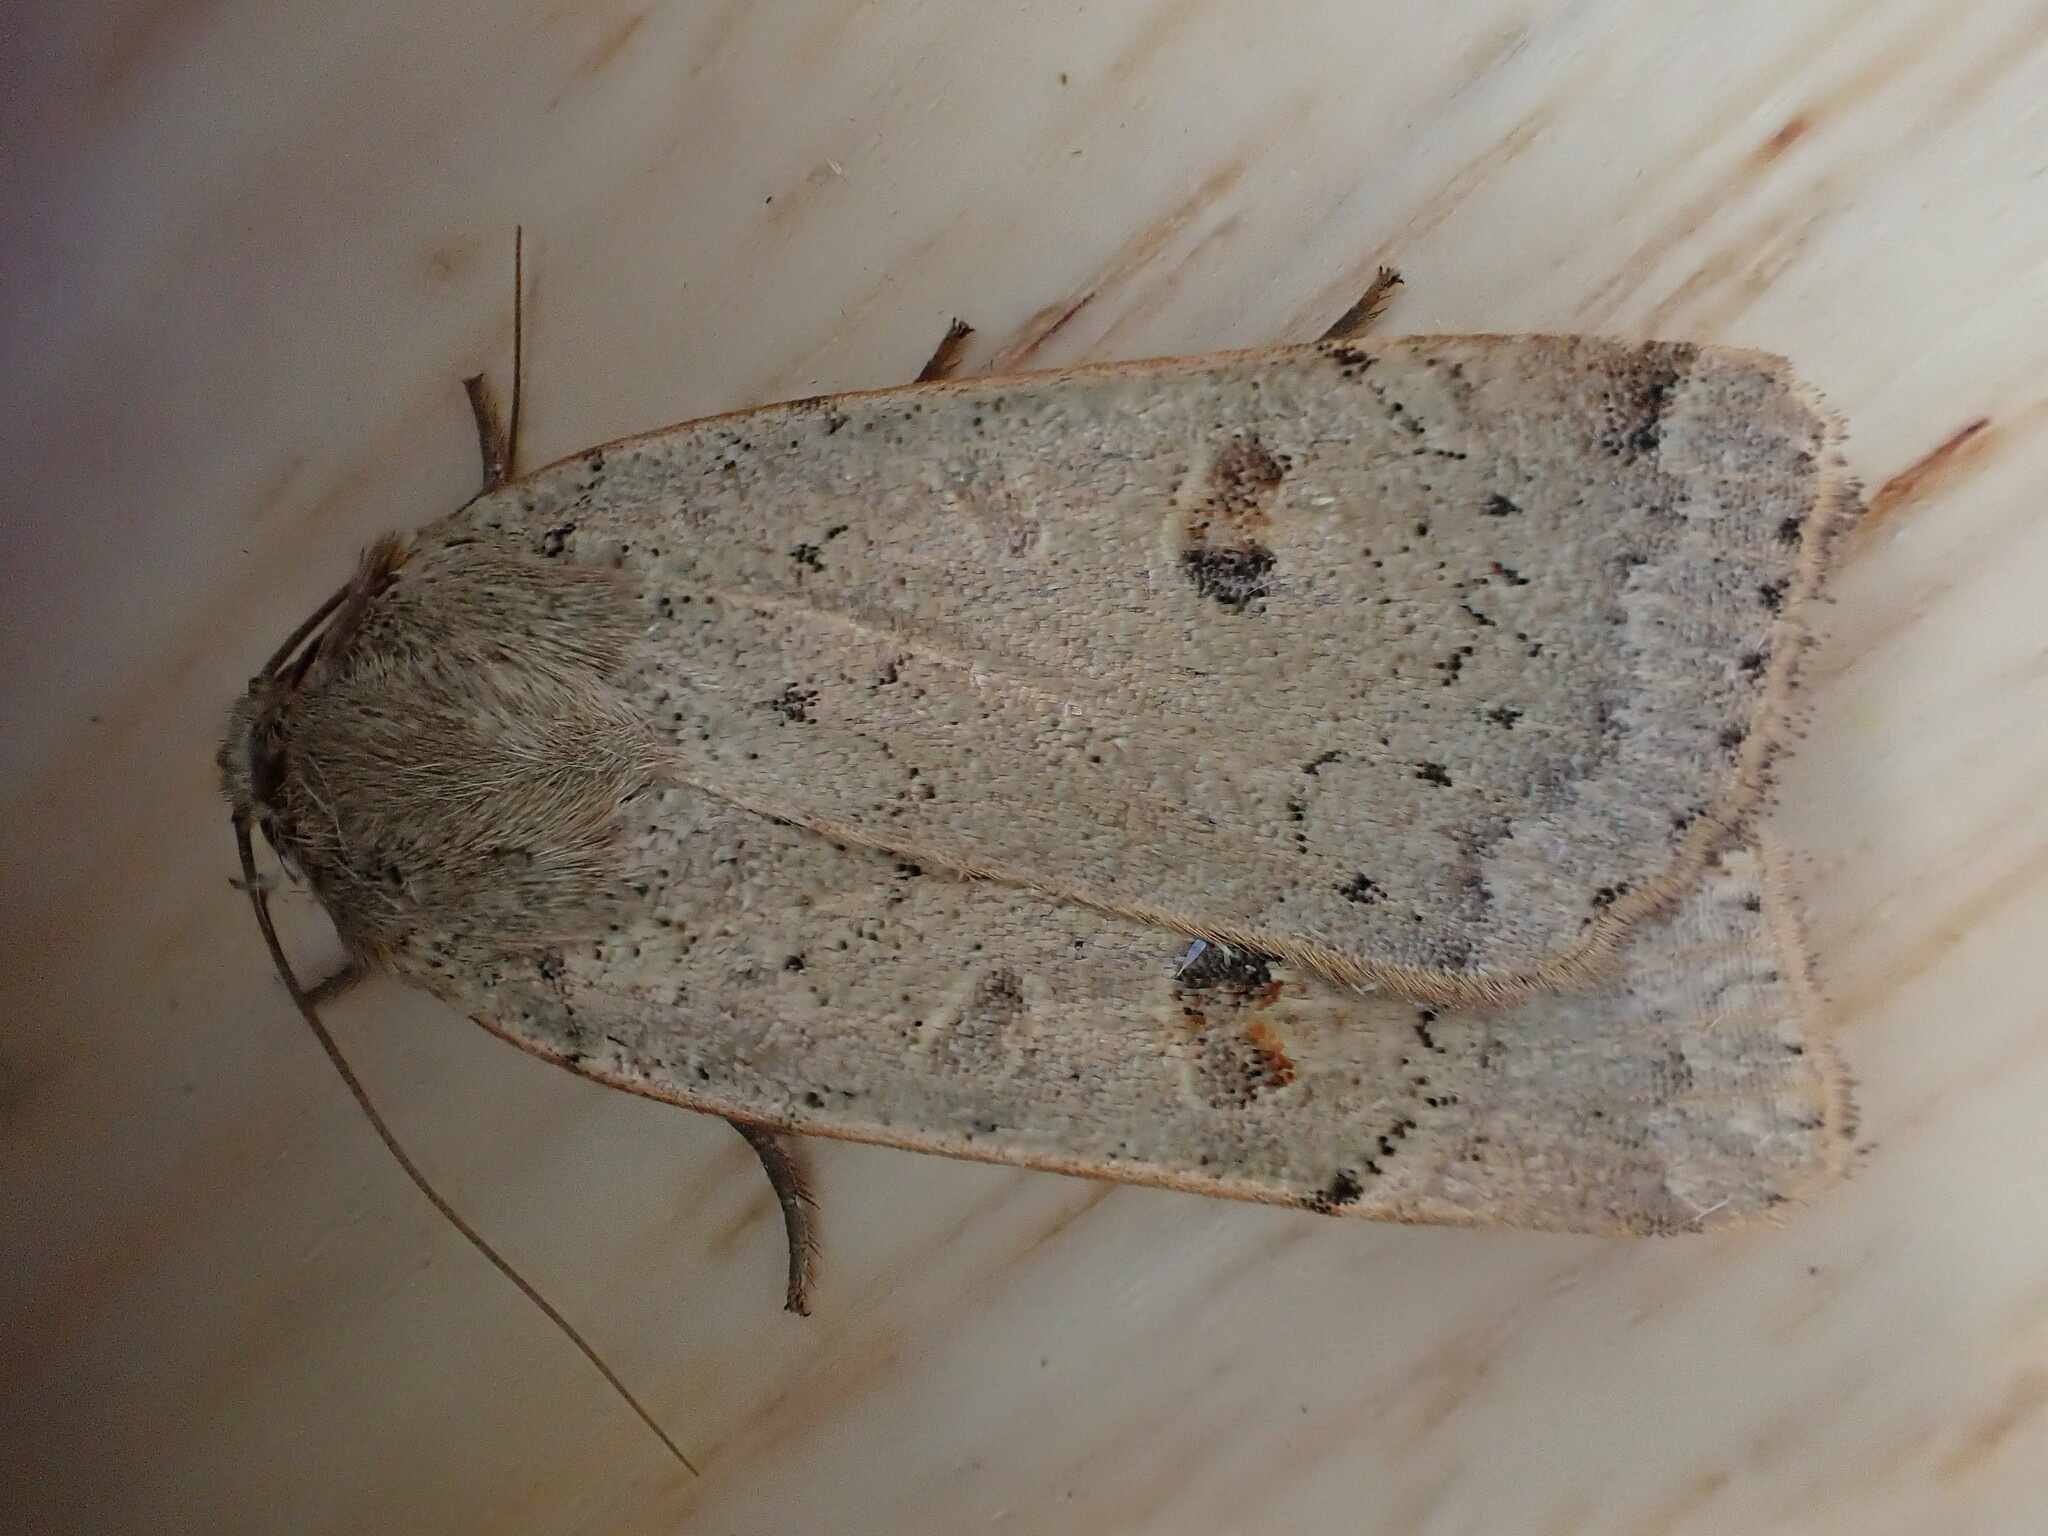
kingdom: Animalia
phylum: Arthropoda
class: Insecta
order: Lepidoptera
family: Noctuidae
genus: Noctua
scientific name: Noctua comes
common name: Lesser yellow underwing
